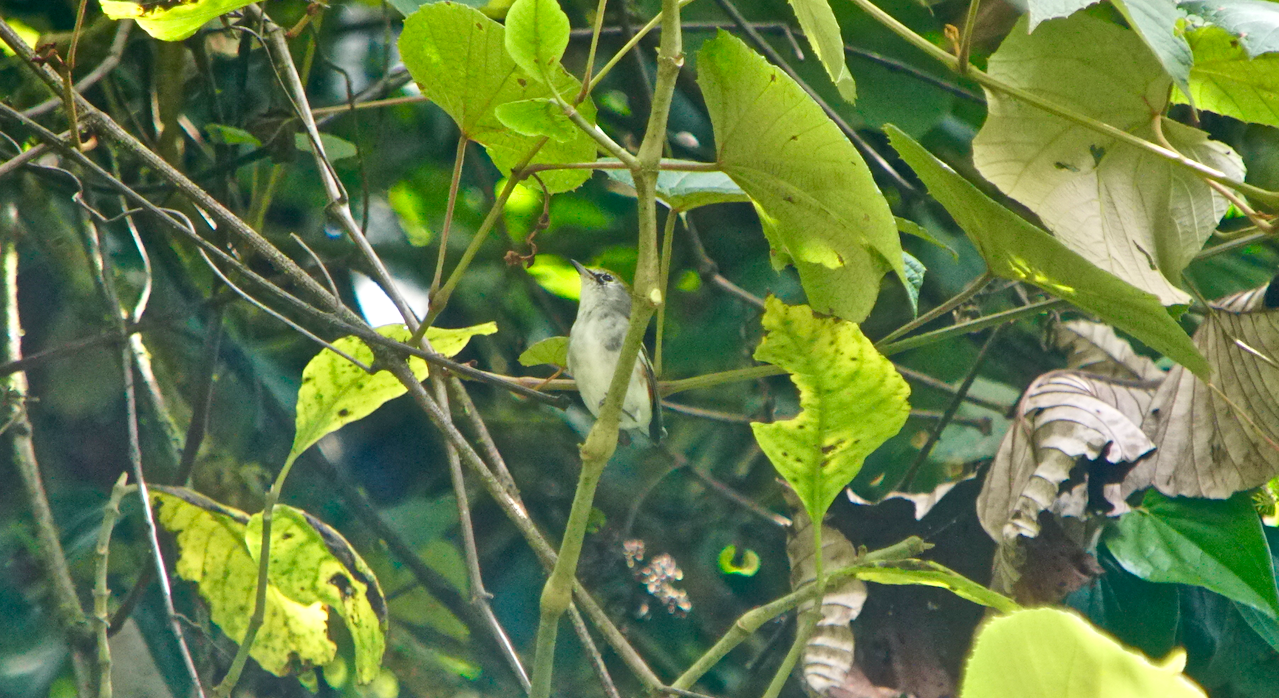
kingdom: Animalia
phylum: Chordata
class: Aves
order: Passeriformes
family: Parulidae
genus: Setophaga
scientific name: Setophaga pensylvanica
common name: Chestnut-sided warbler
